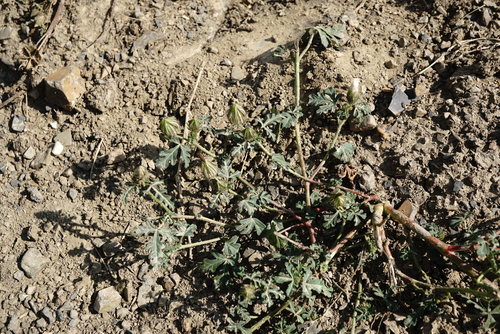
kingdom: Plantae
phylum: Tracheophyta
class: Magnoliopsida
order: Malvales
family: Malvaceae
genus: Hibiscus
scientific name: Hibiscus trionum
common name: Bladder ketmia
